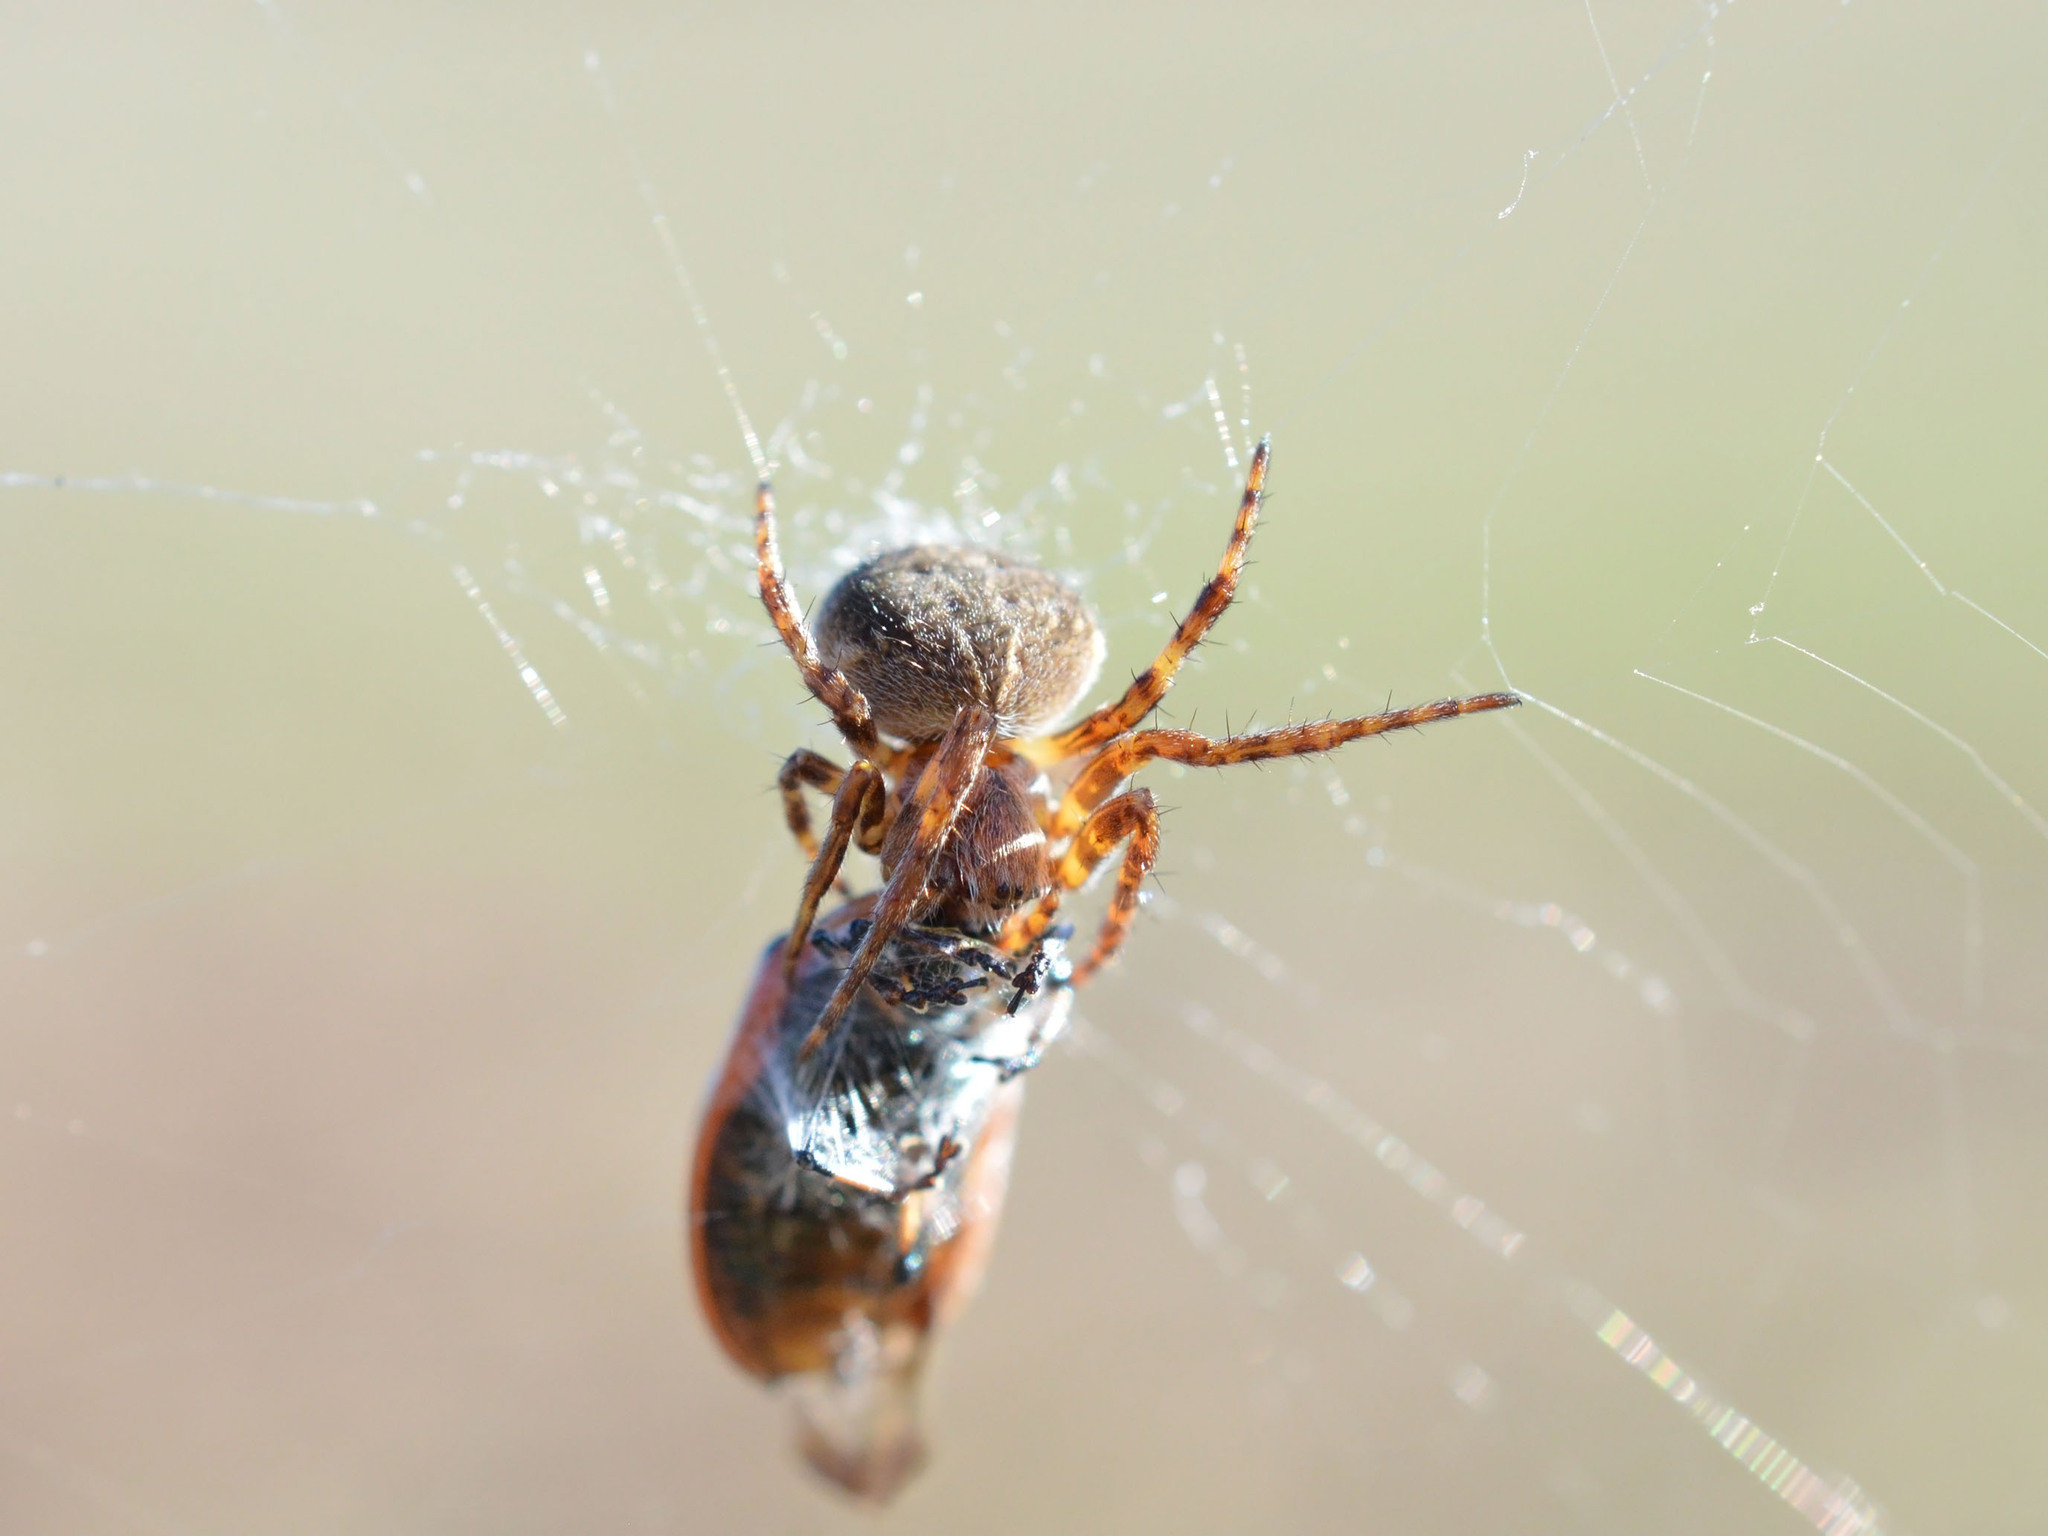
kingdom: Animalia
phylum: Arthropoda
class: Arachnida
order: Araneae
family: Araneidae
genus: Agalenatea
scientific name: Agalenatea redii
